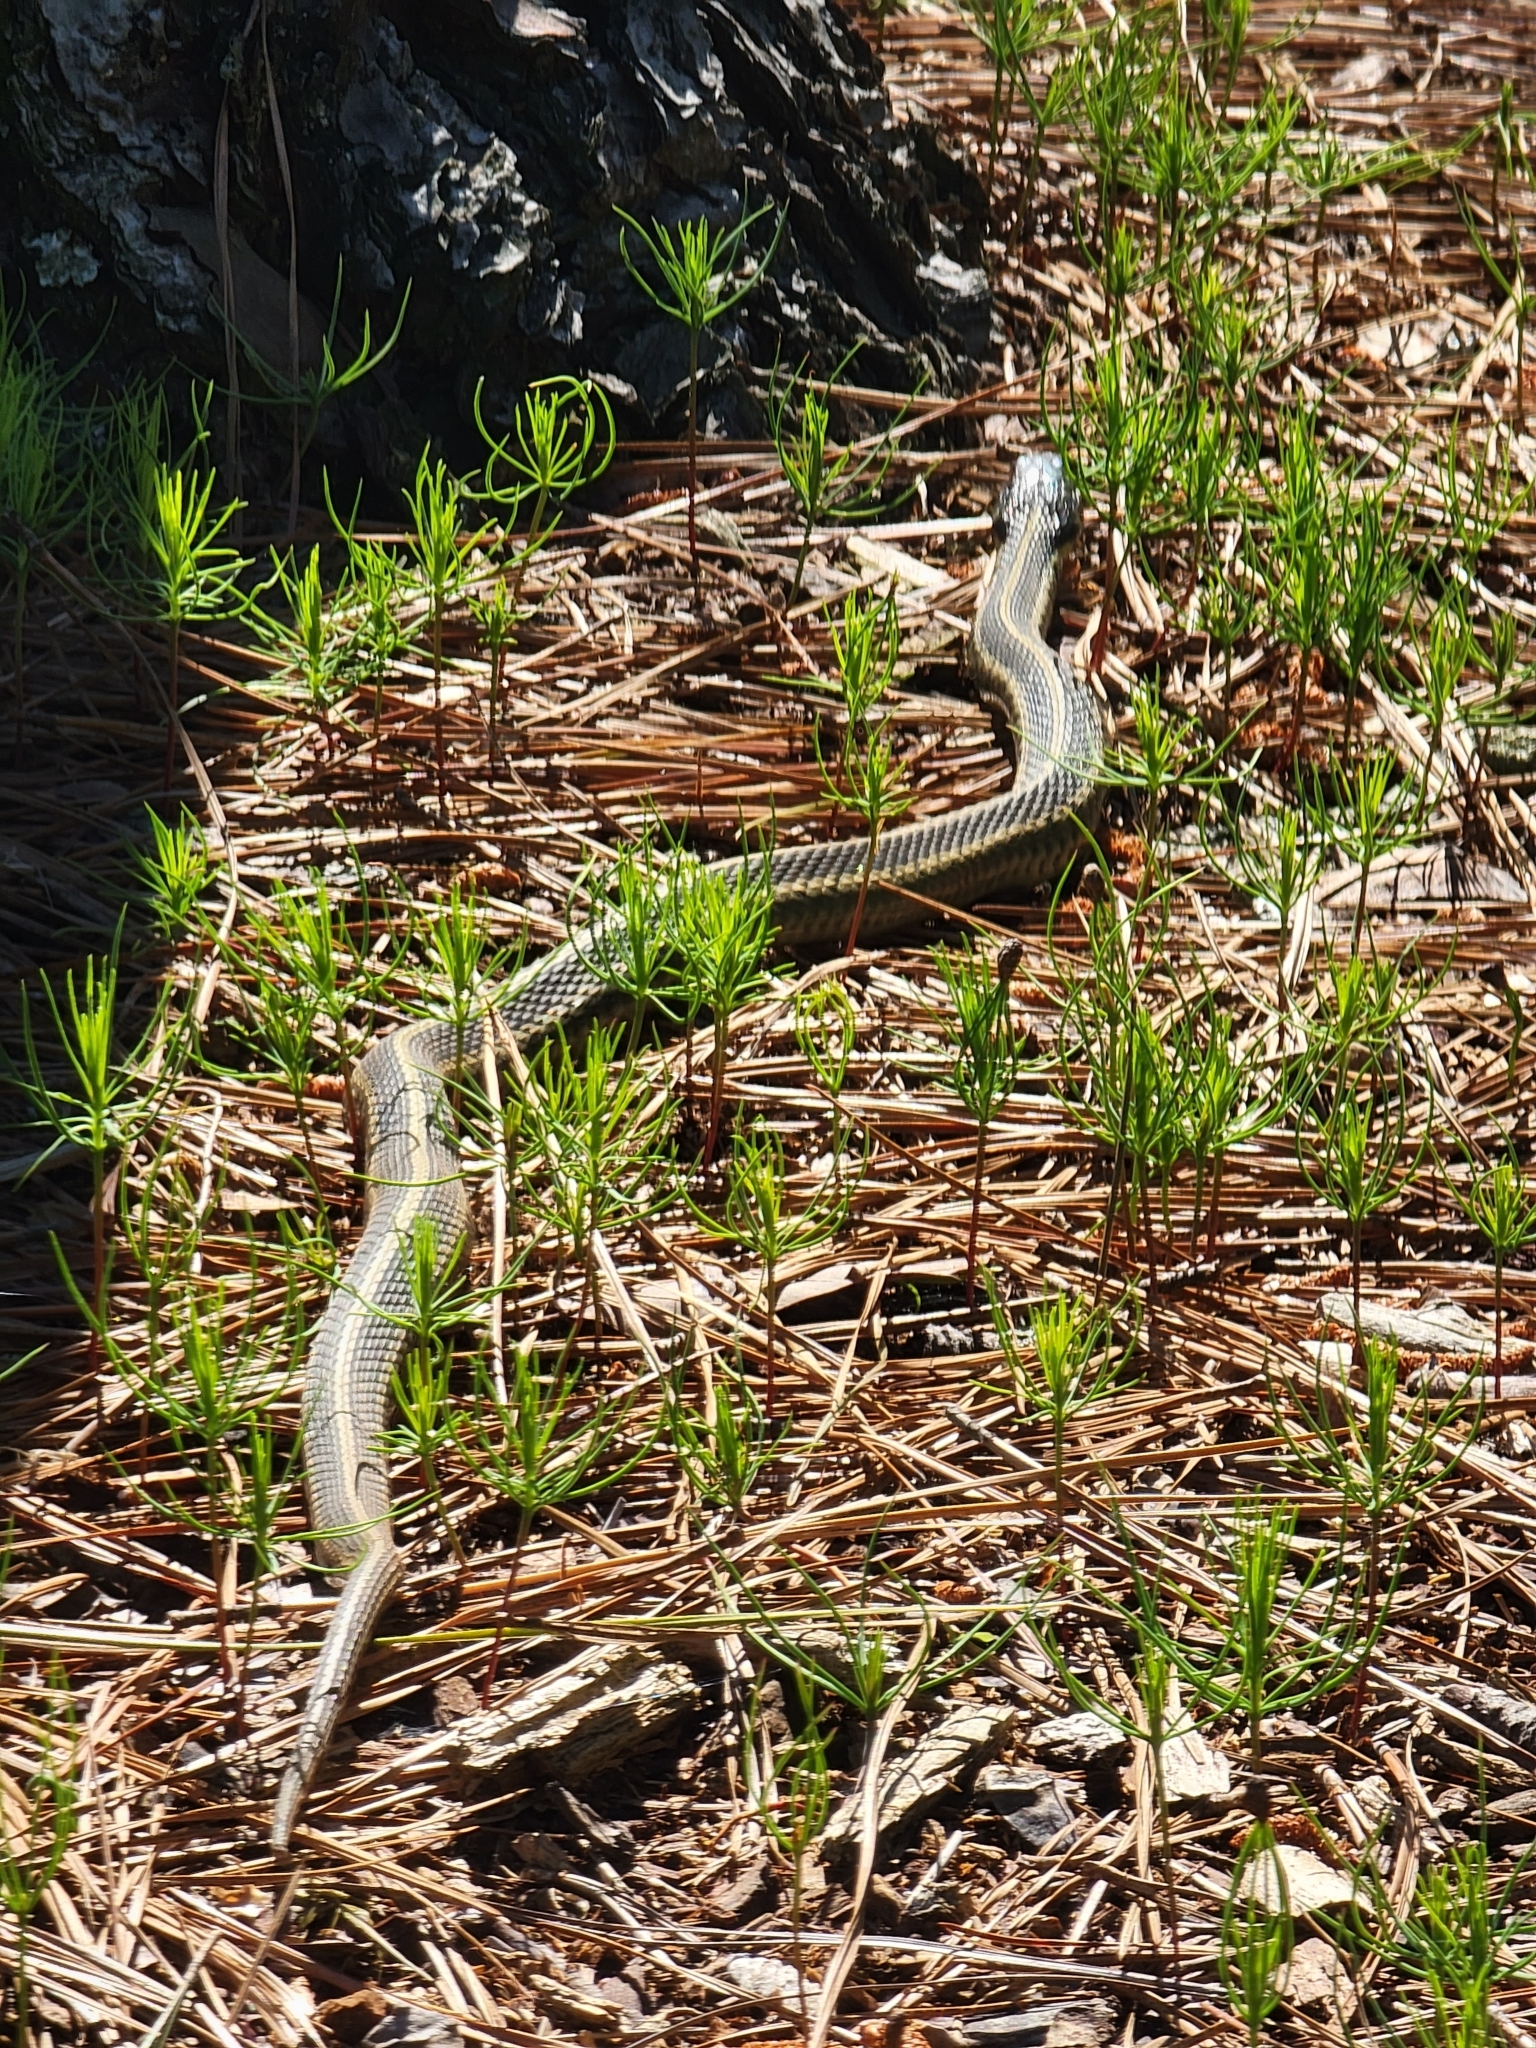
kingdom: Animalia
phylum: Chordata
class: Squamata
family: Colubridae
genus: Thamnophis
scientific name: Thamnophis sirtalis
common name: Common garter snake
